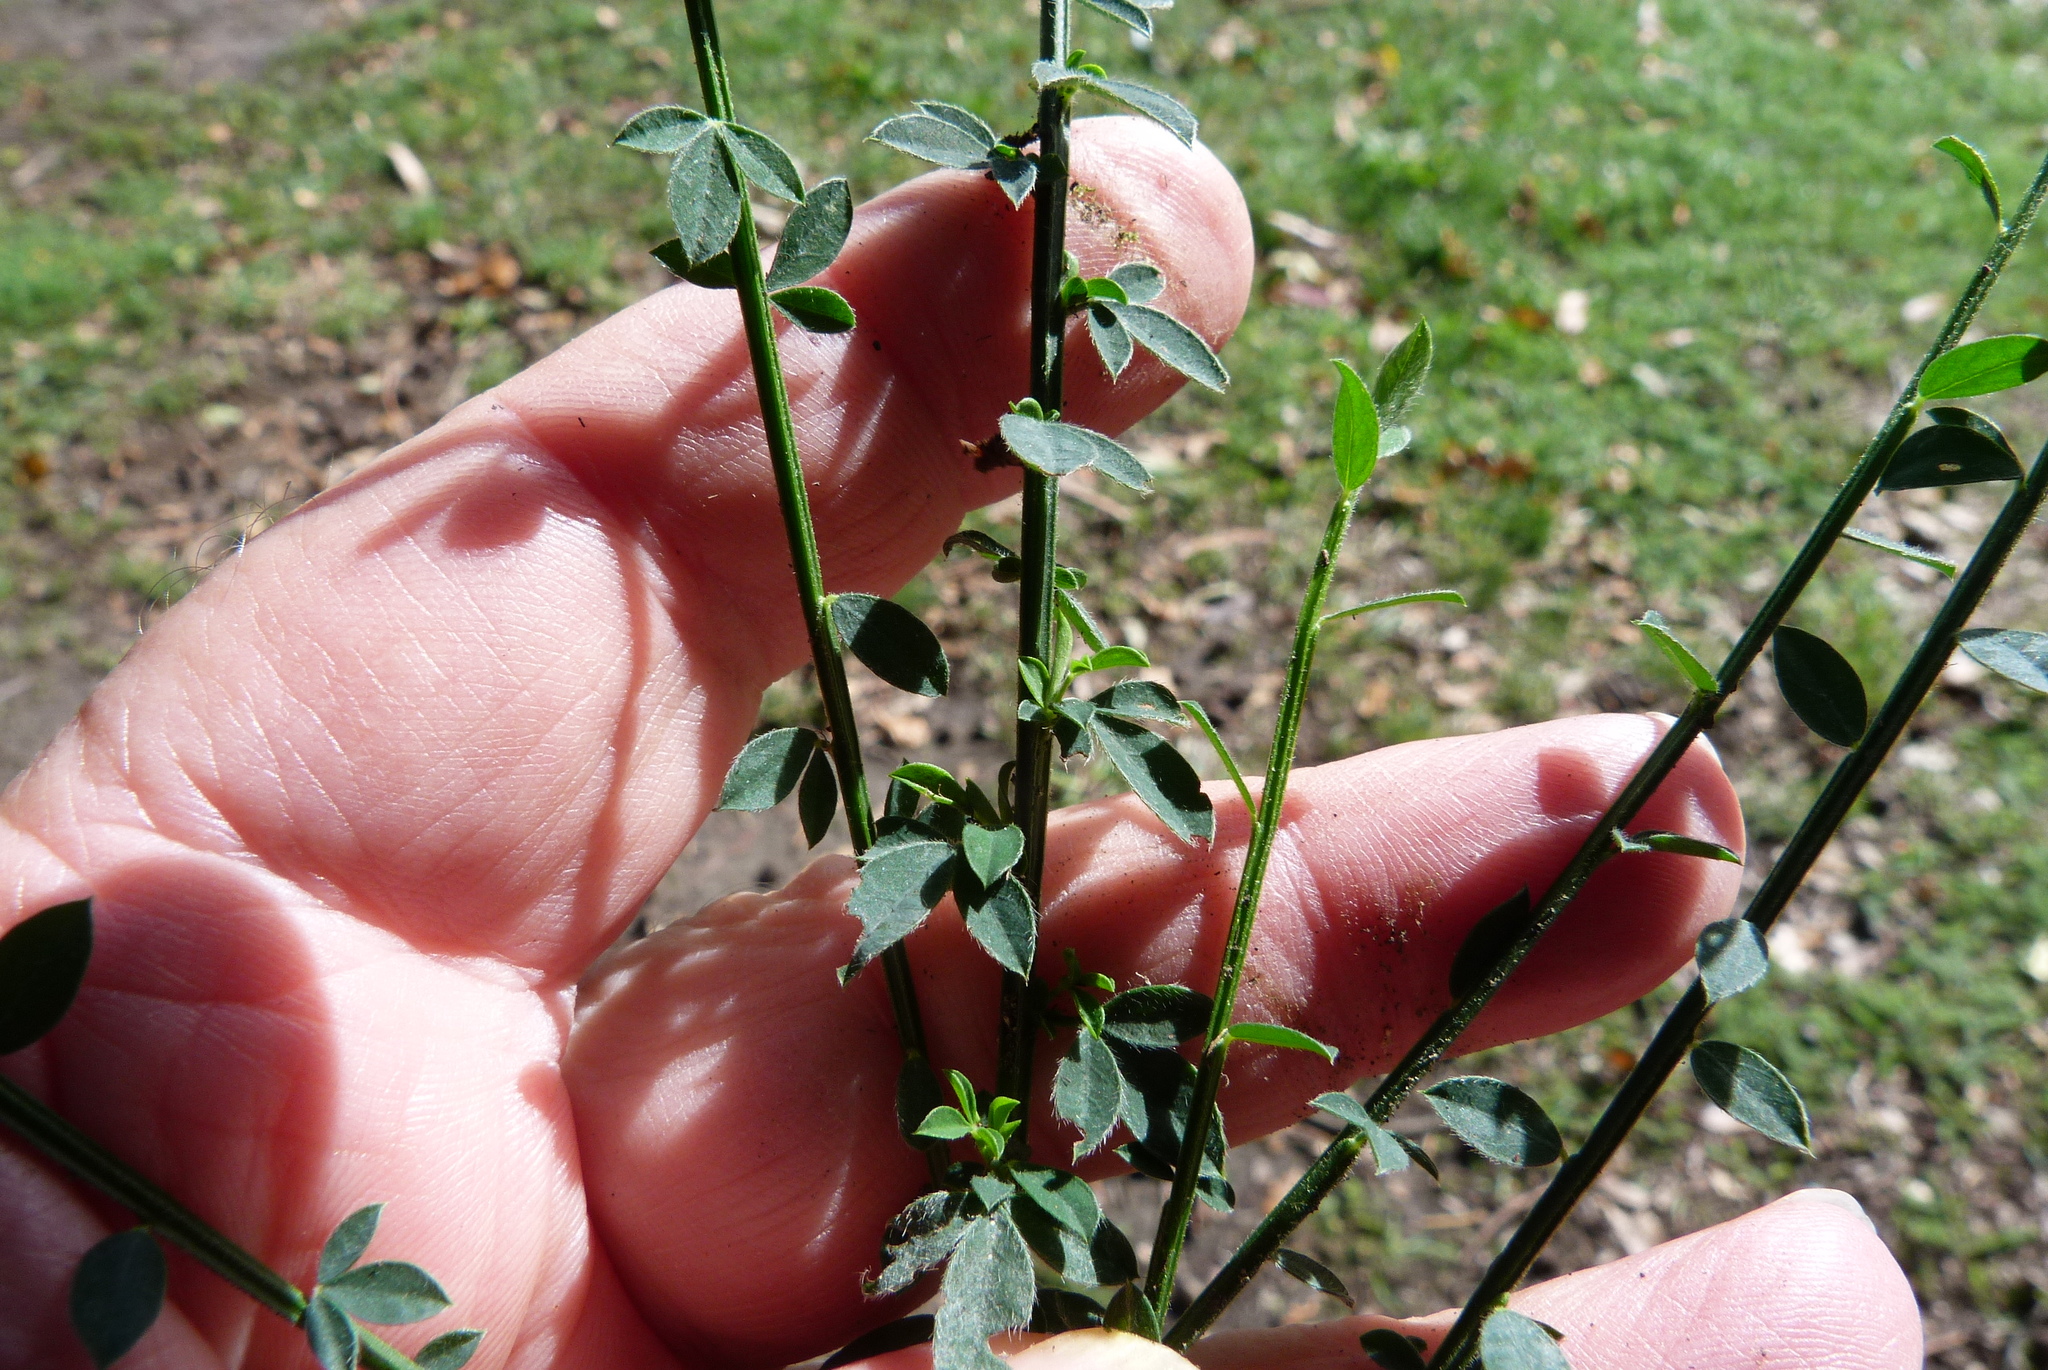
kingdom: Plantae
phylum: Tracheophyta
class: Magnoliopsida
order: Fabales
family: Fabaceae
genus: Cytisus
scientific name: Cytisus scoparius
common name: Scotch broom
